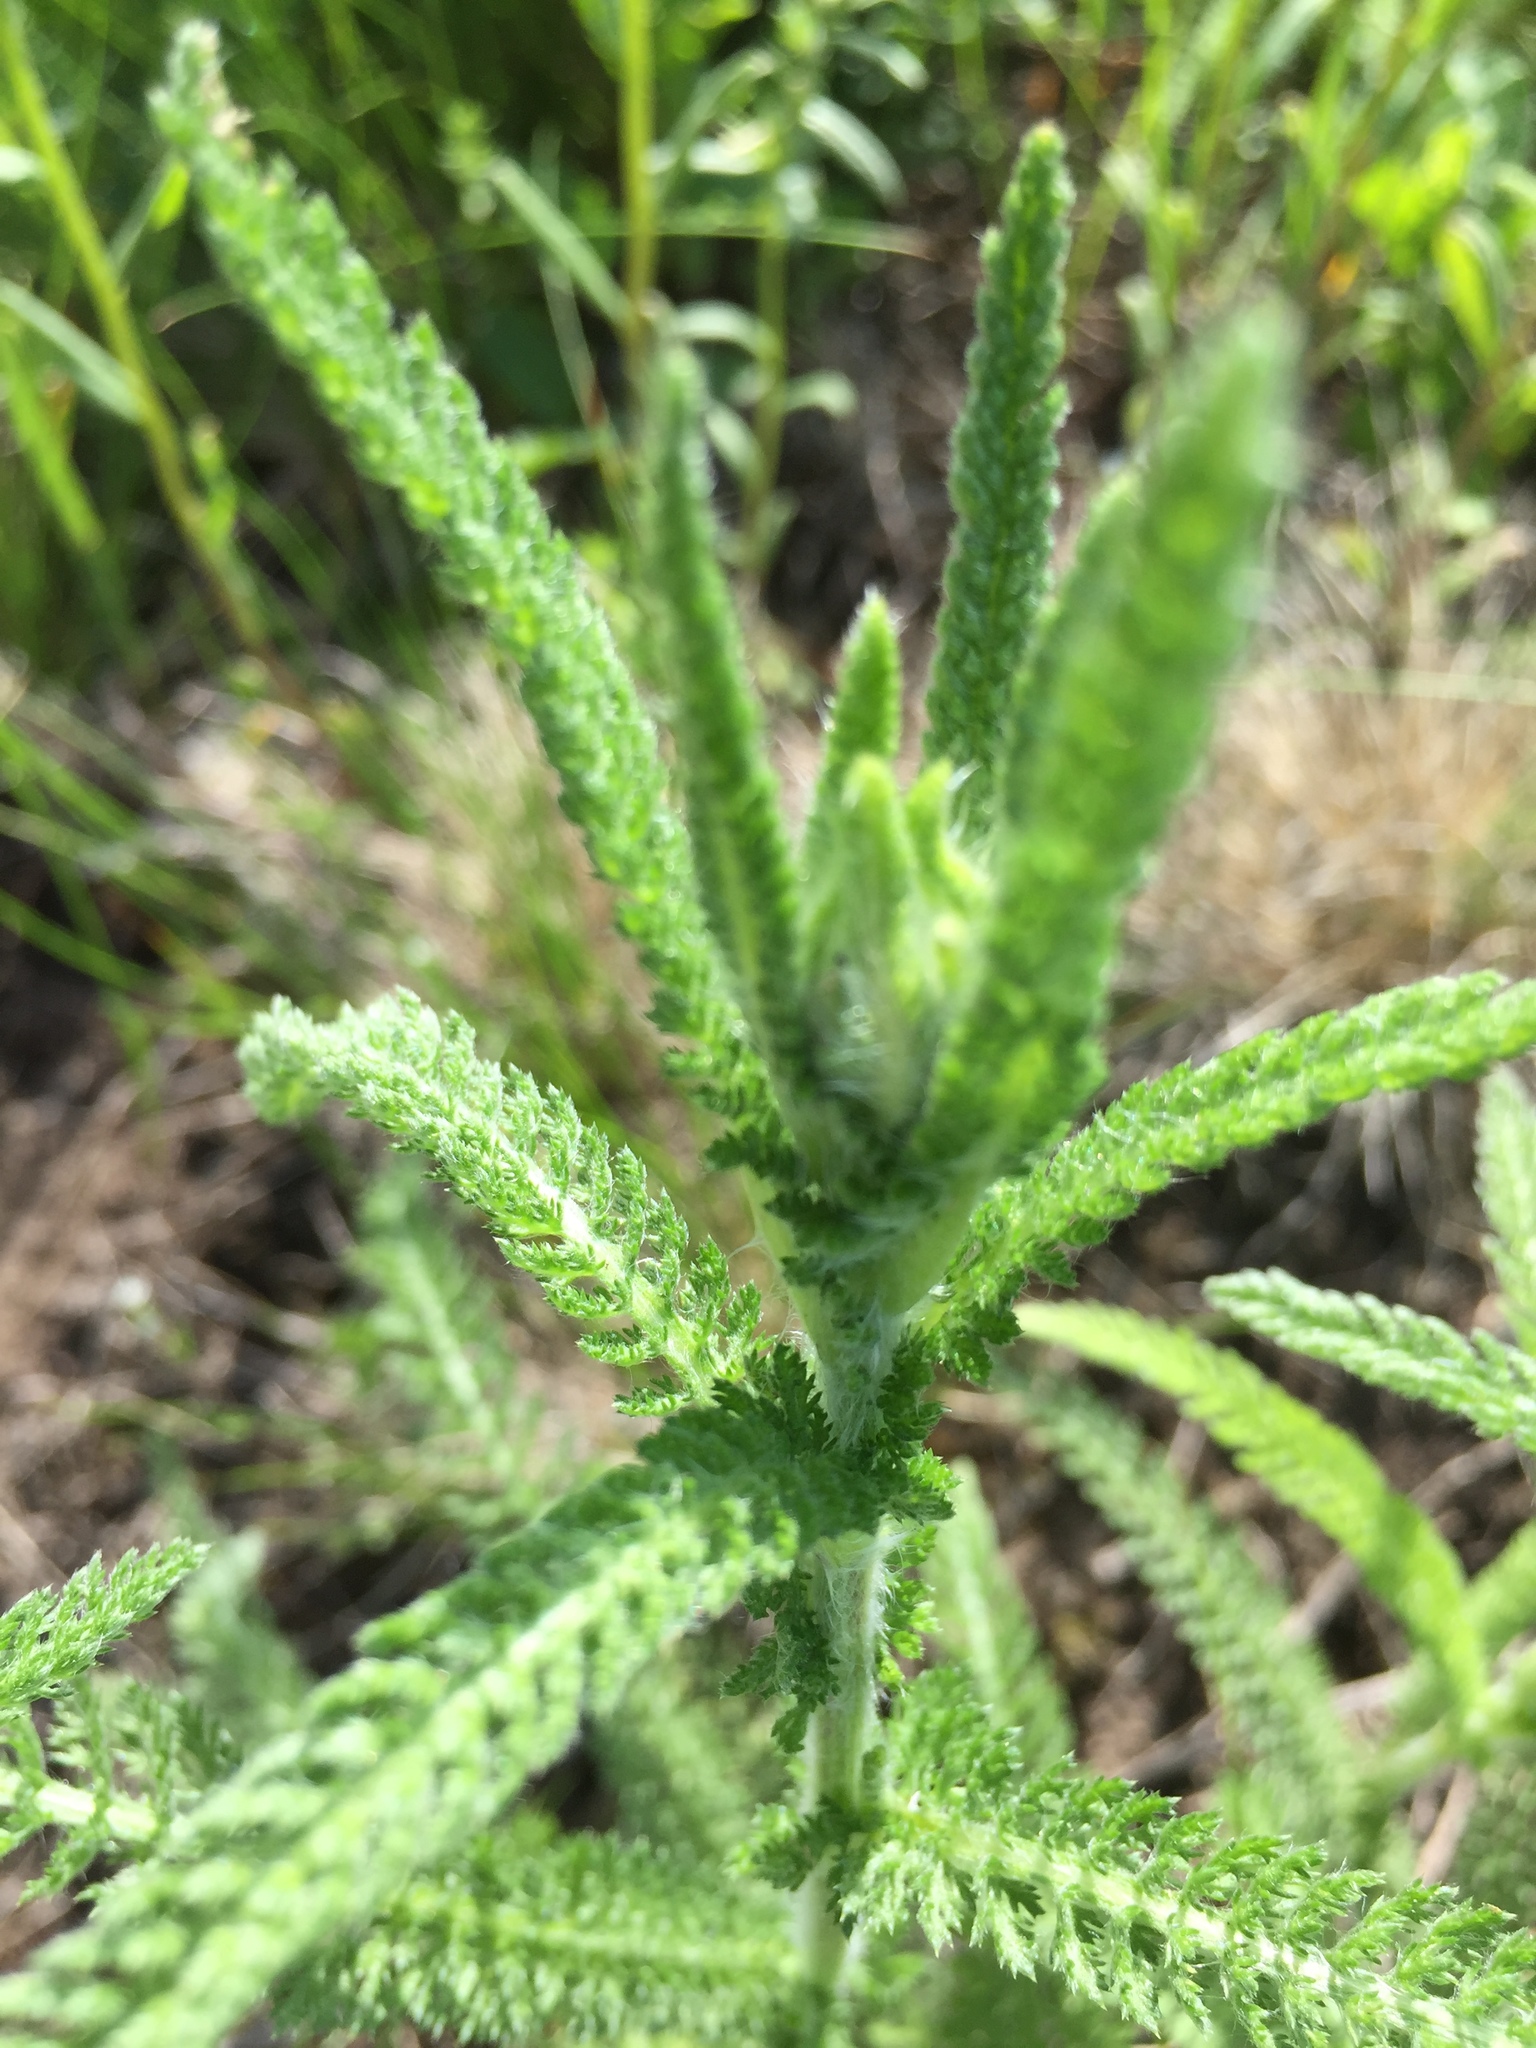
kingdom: Plantae
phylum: Tracheophyta
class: Magnoliopsida
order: Asterales
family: Asteraceae
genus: Achillea
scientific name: Achillea setacea
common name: Bristly yarrow
